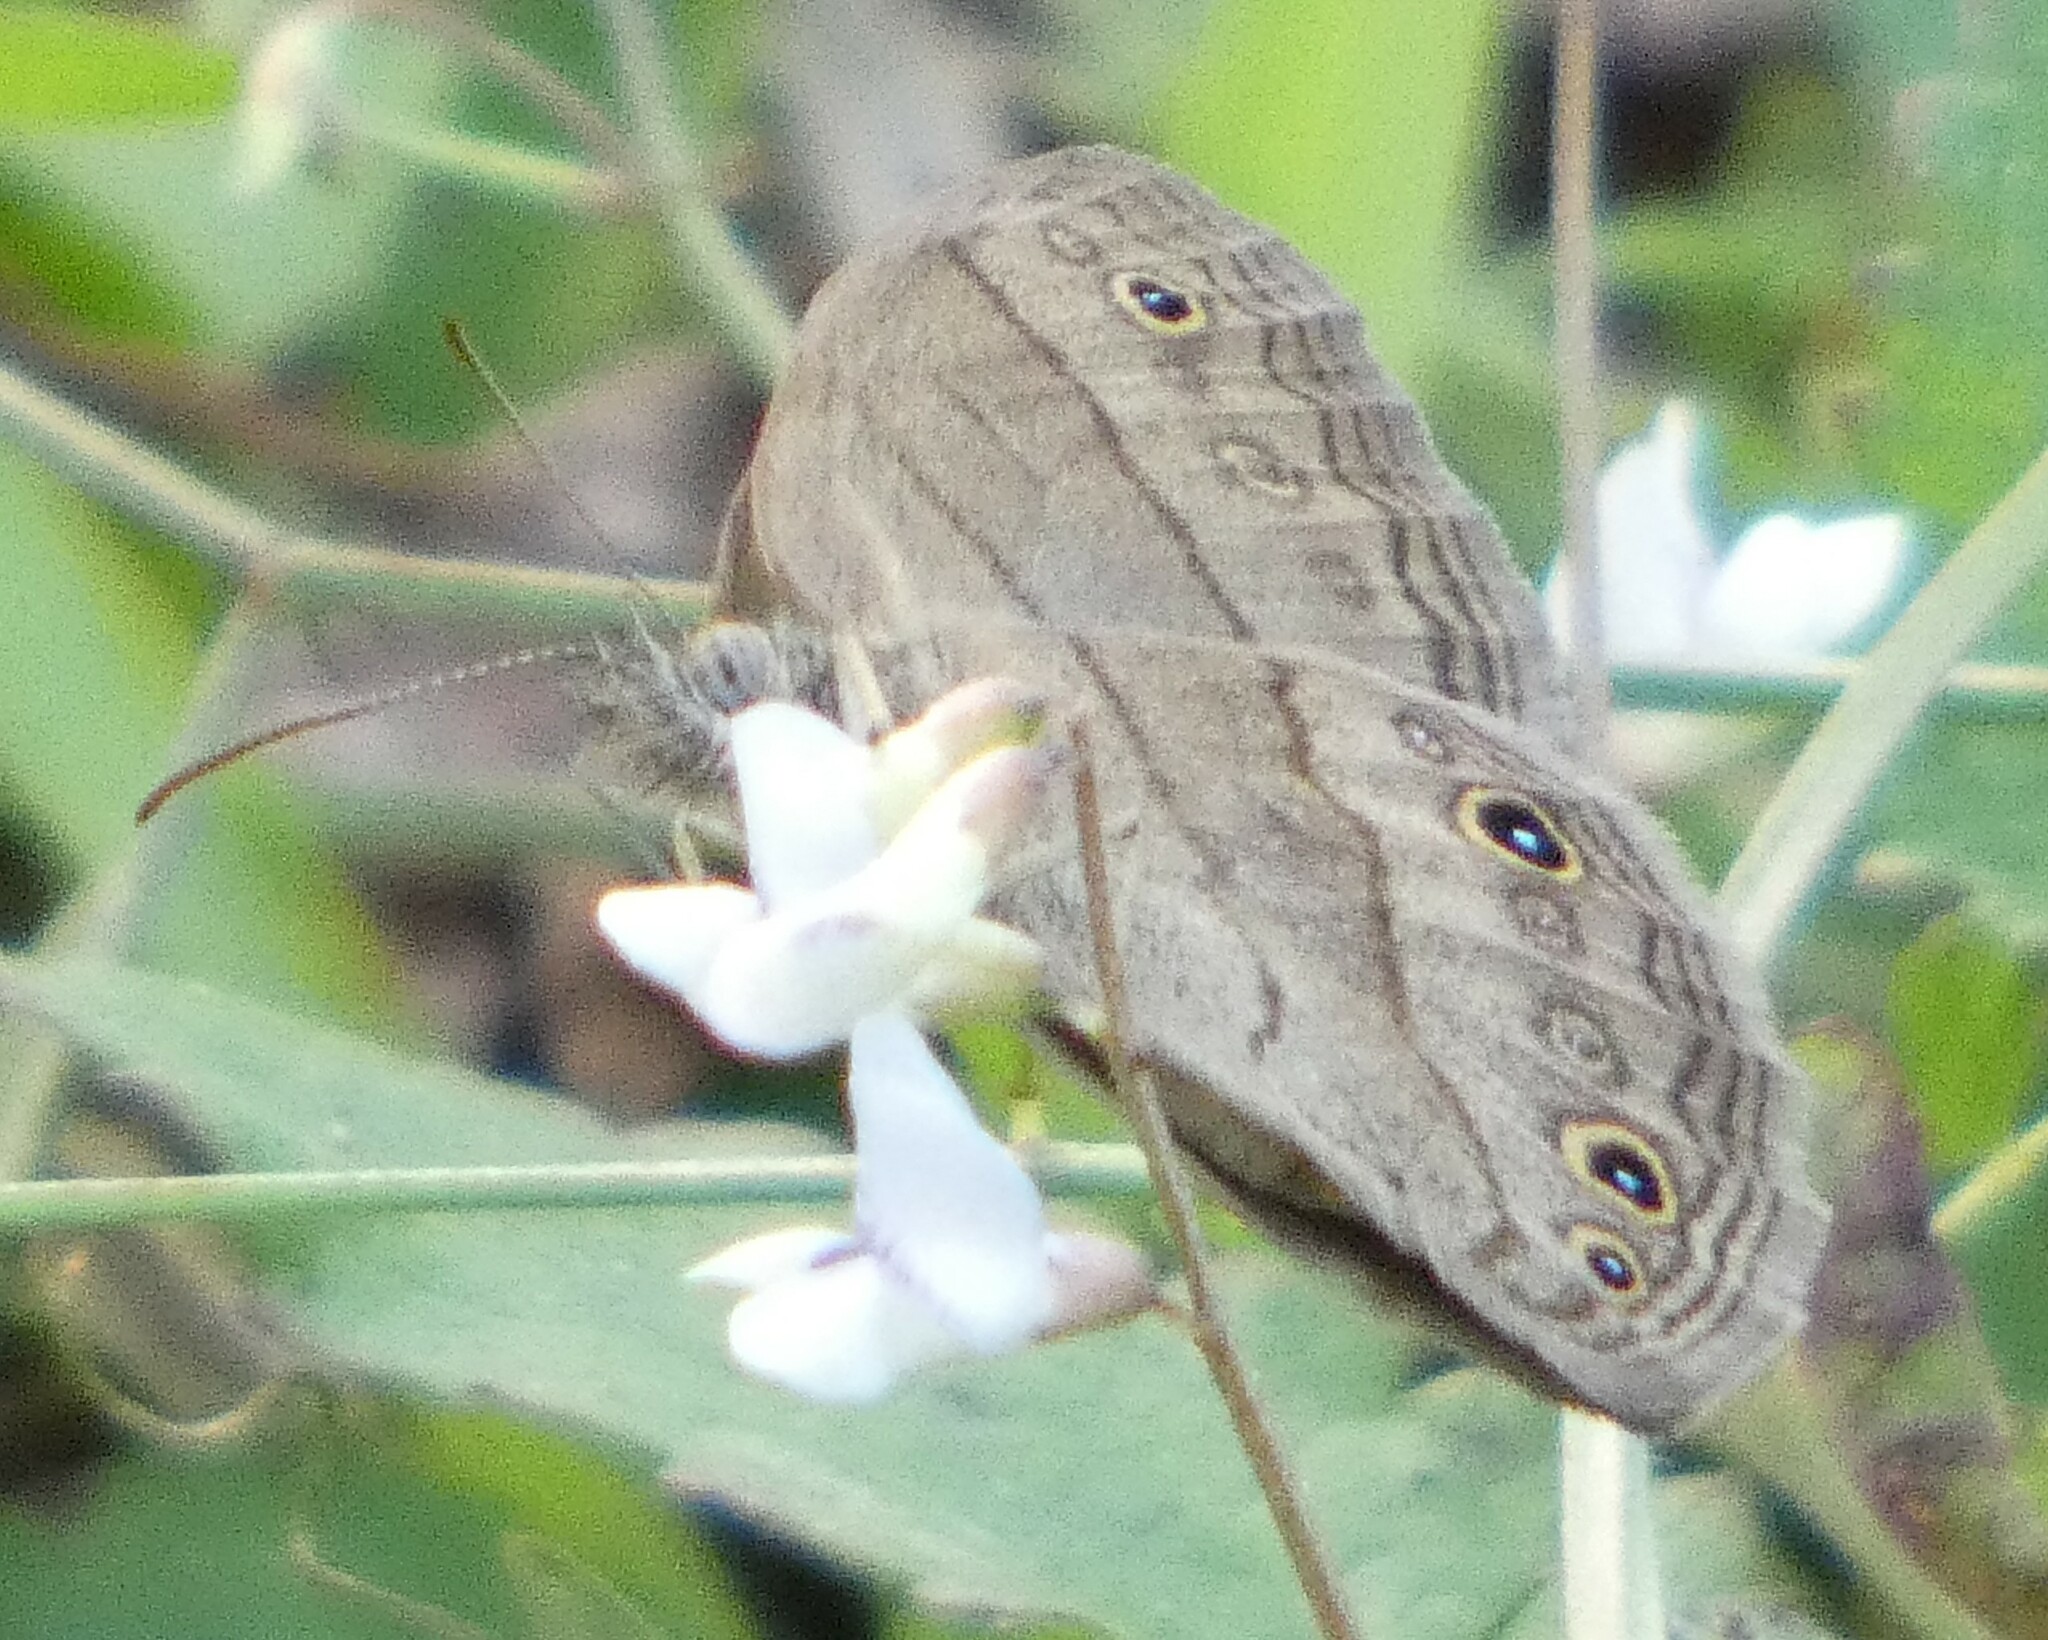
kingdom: Animalia
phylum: Arthropoda
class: Insecta
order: Lepidoptera
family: Nymphalidae
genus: Hermeuptychia
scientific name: Hermeuptychia hermes
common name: Hermes satyr
